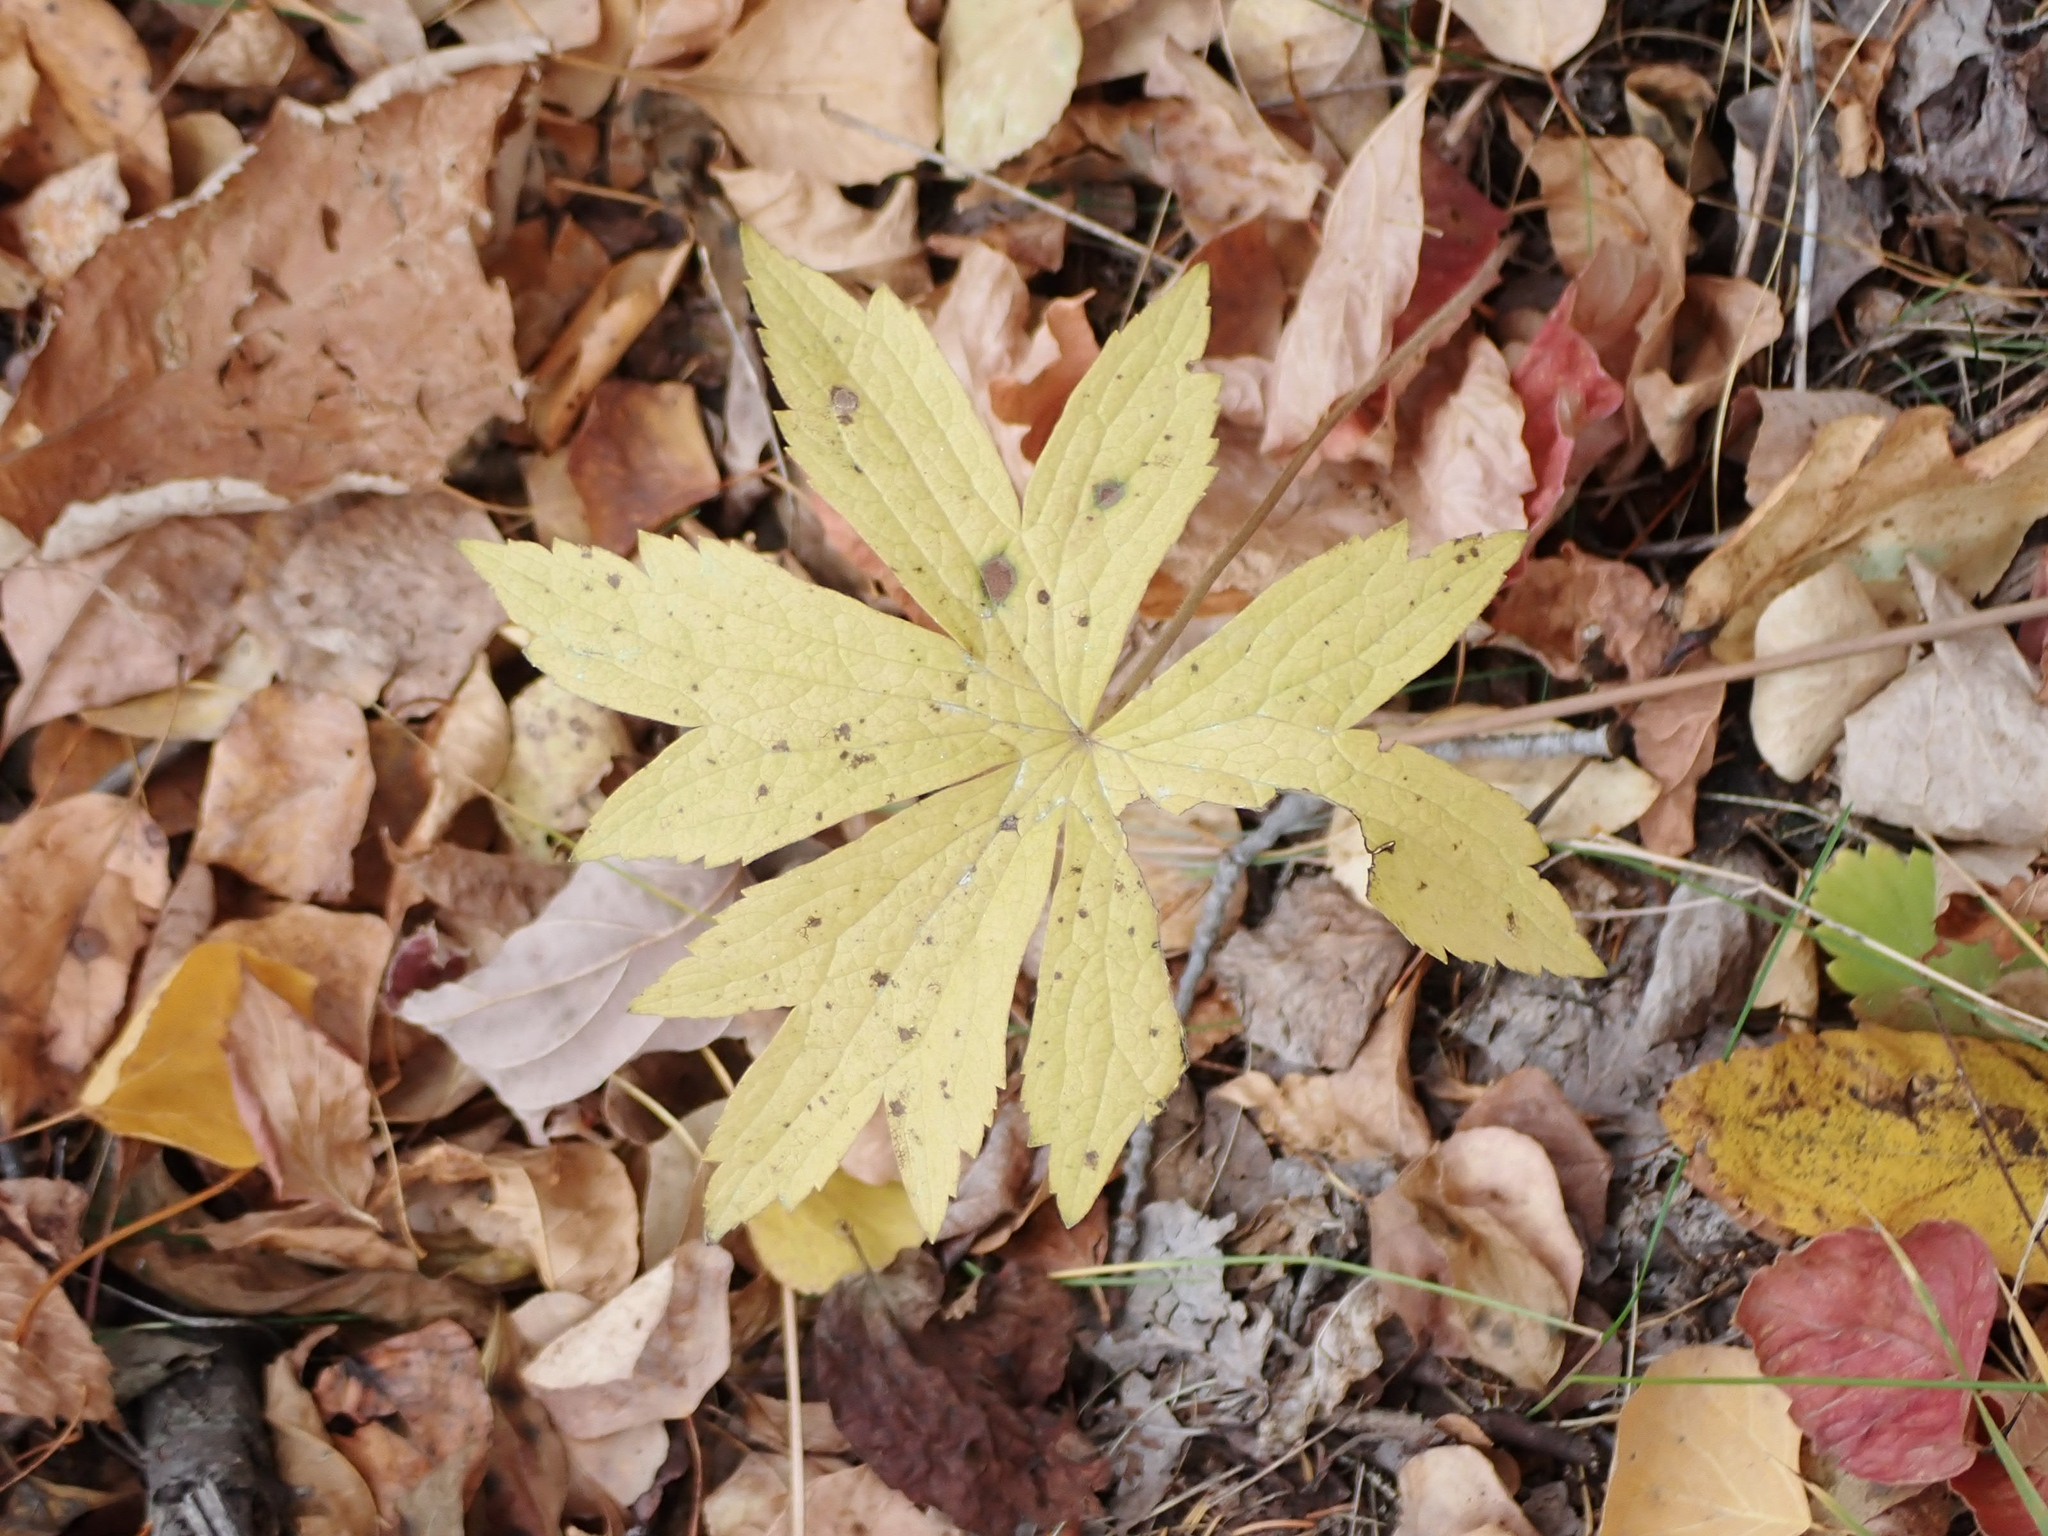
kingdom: Plantae
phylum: Tracheophyta
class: Magnoliopsida
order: Ranunculales
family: Ranunculaceae
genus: Anemonastrum
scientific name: Anemonastrum canadense
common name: Canada anemone
